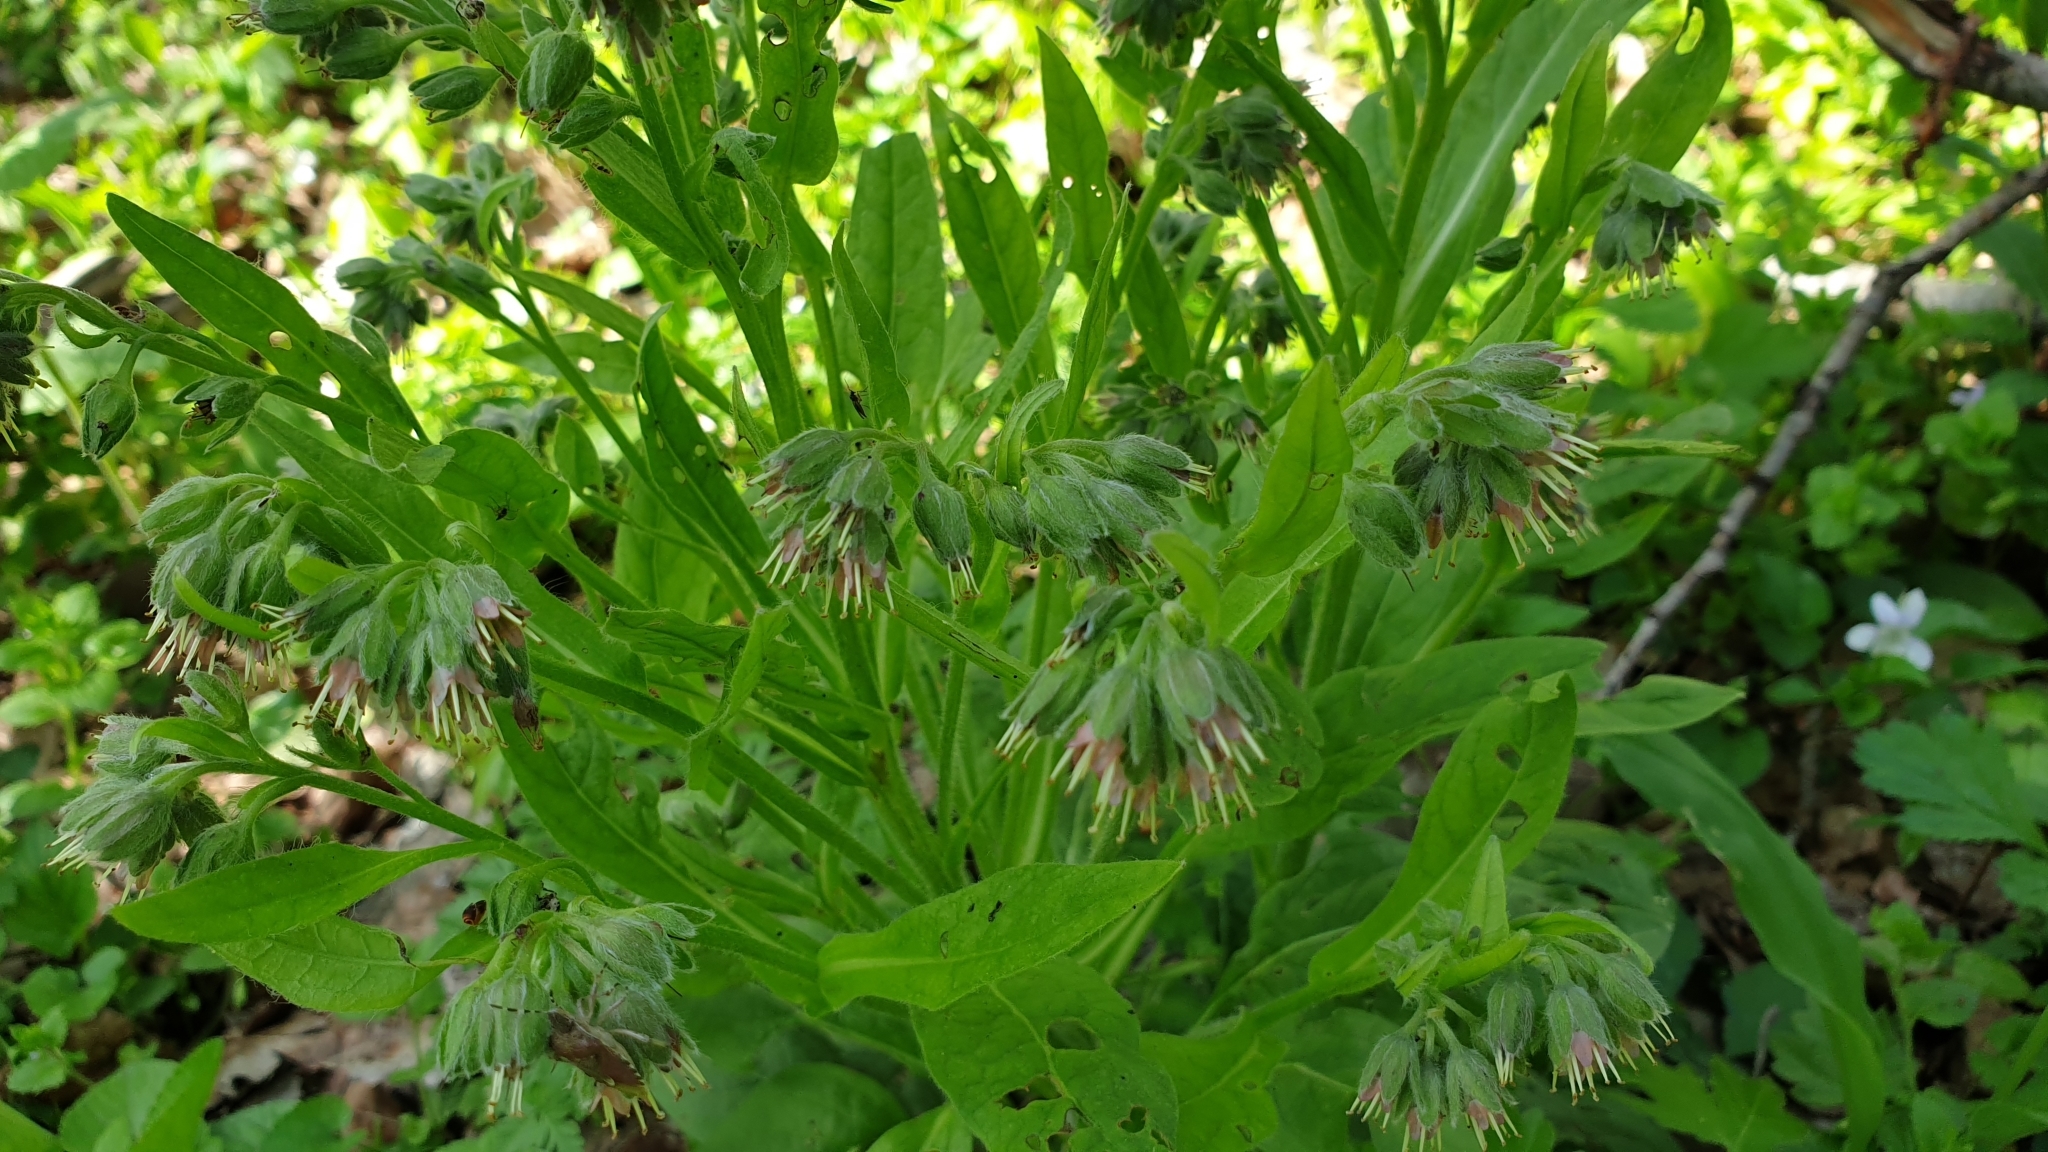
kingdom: Plantae
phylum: Tracheophyta
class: Magnoliopsida
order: Boraginales
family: Boraginaceae
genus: Solenanthus
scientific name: Solenanthus dubius
